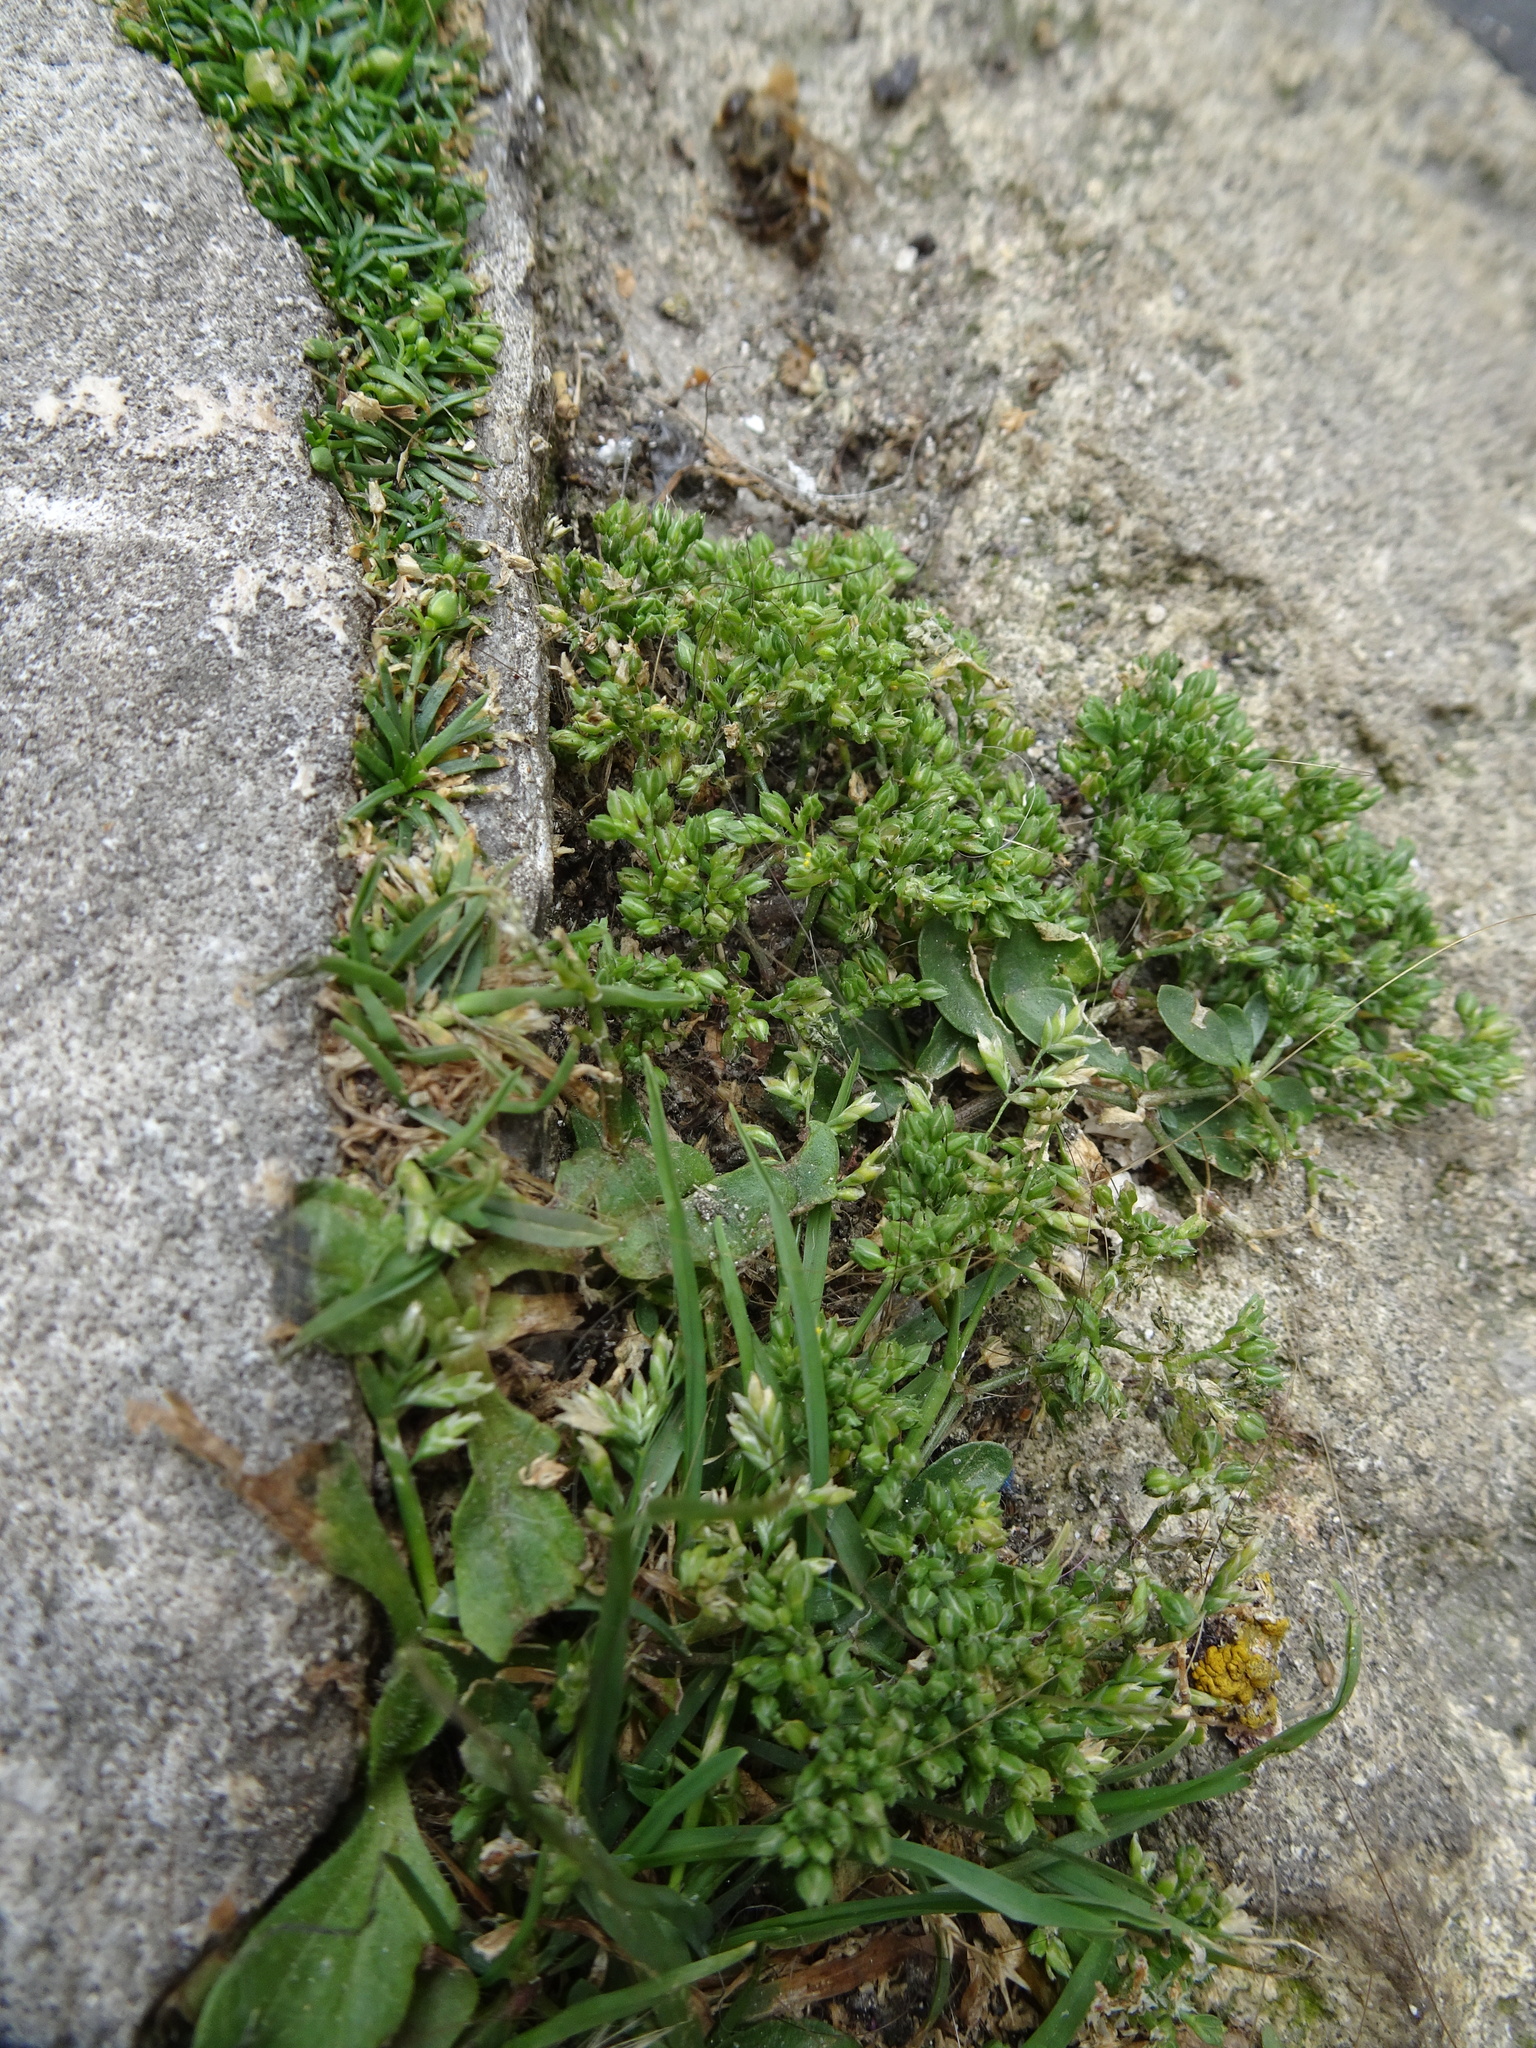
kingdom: Plantae
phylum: Tracheophyta
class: Magnoliopsida
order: Caryophyllales
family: Caryophyllaceae
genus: Polycarpon
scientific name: Polycarpon tetraphyllum
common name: Four-leaved all-seed
